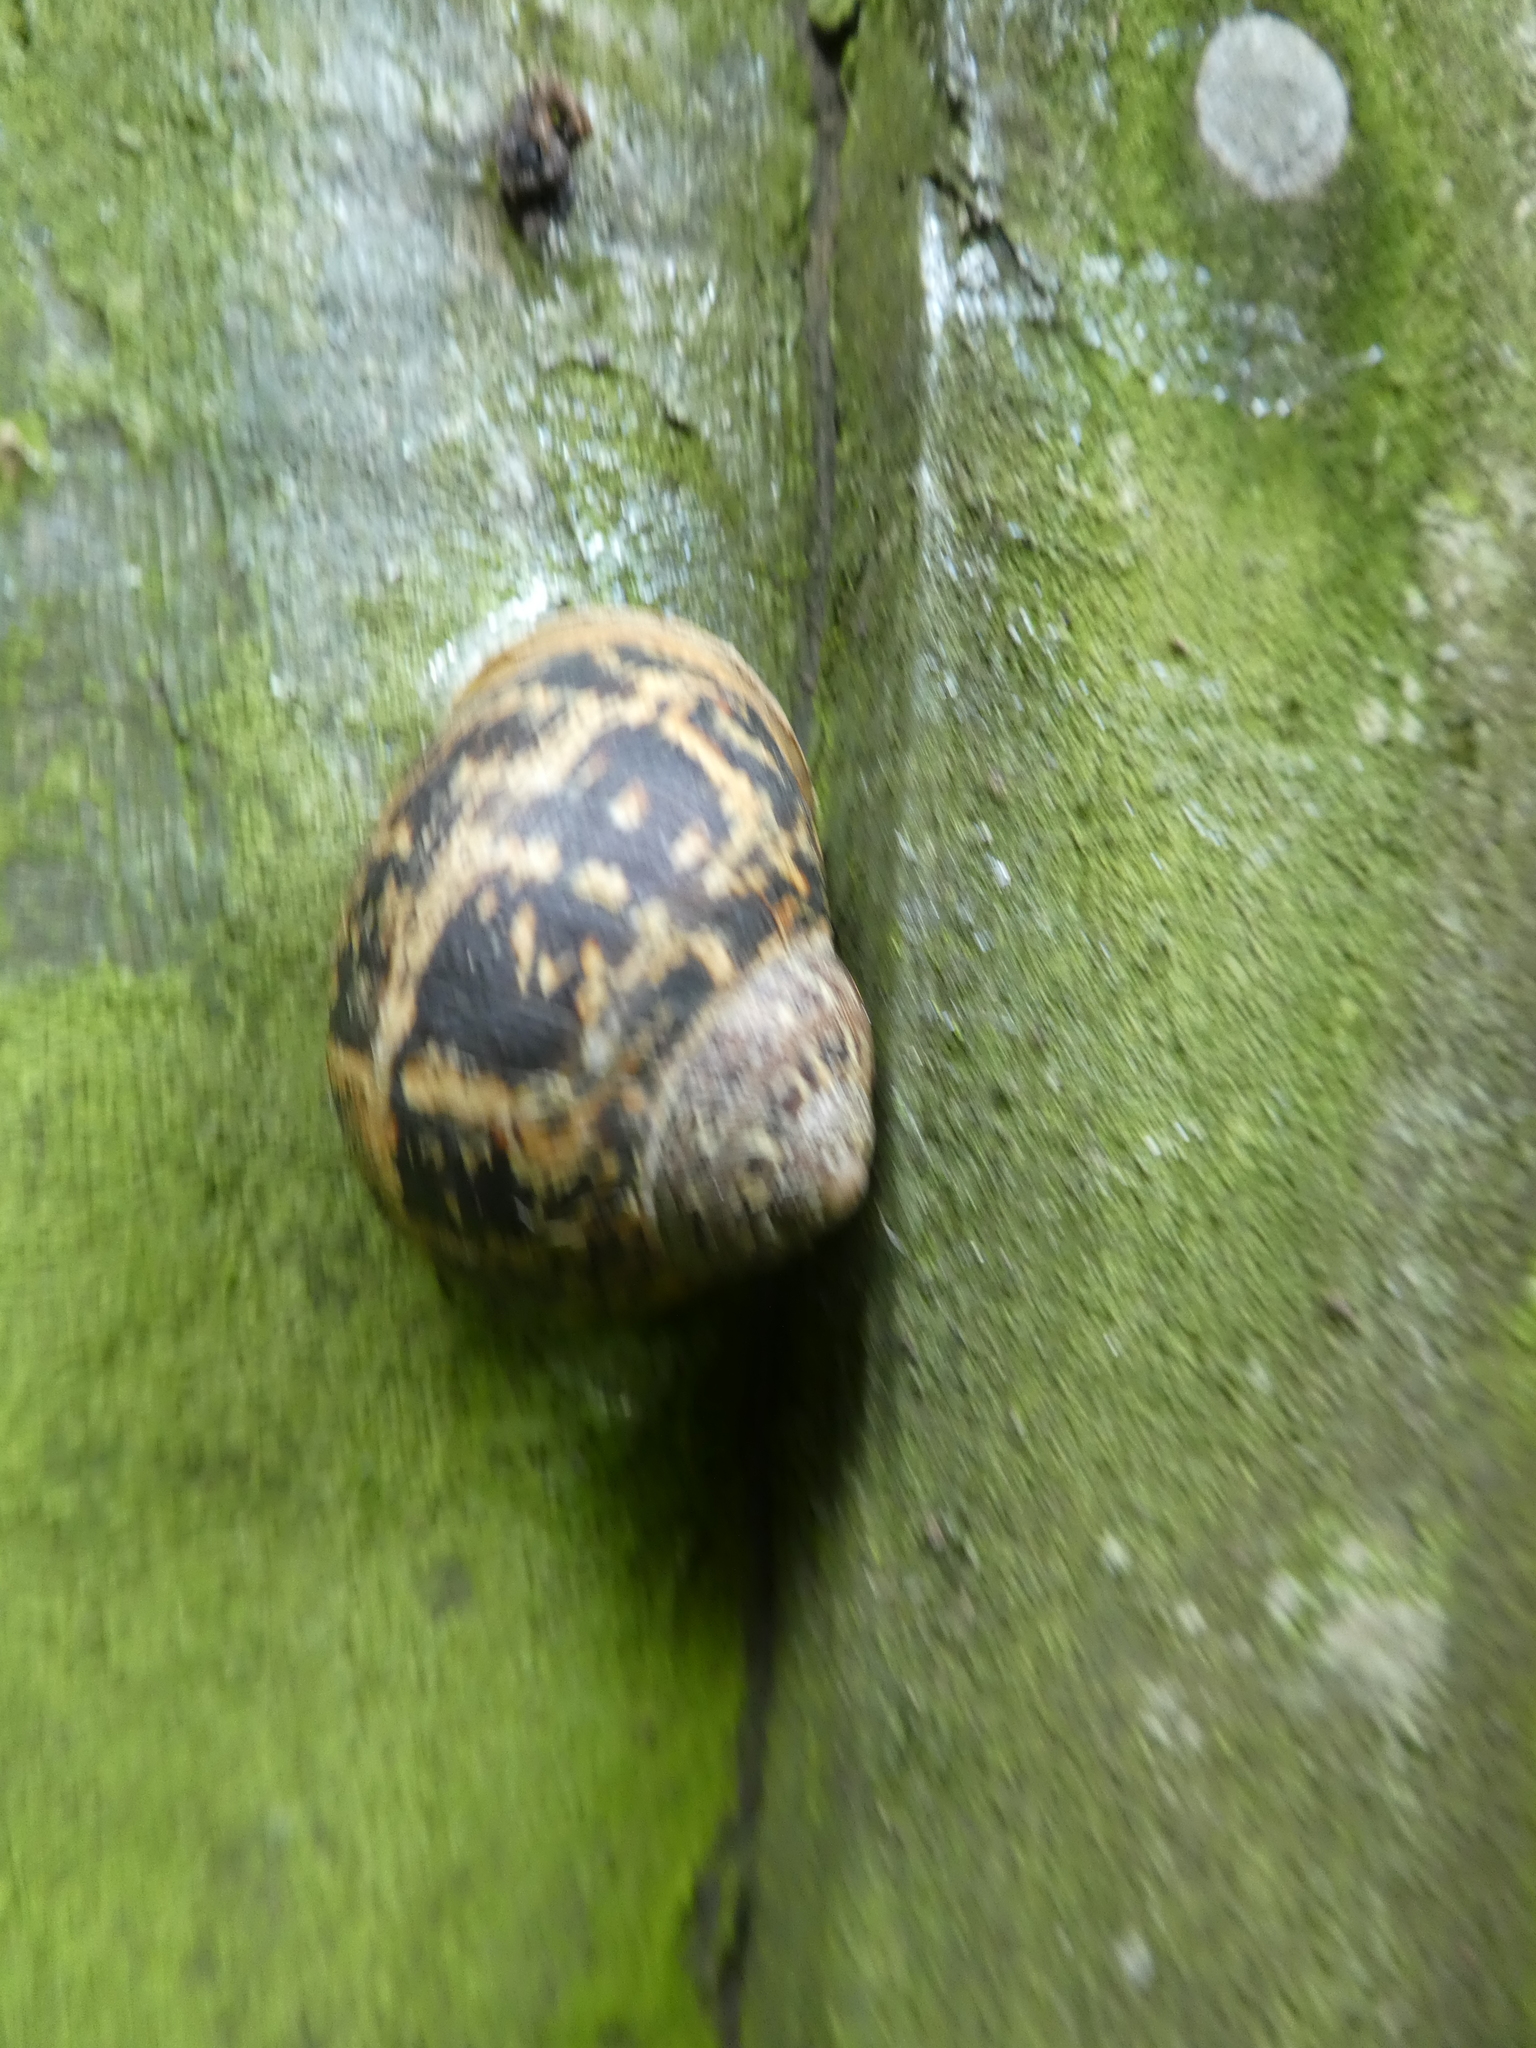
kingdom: Animalia
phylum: Mollusca
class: Gastropoda
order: Stylommatophora
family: Helicidae
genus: Cornu
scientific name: Cornu aspersum
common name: Brown garden snail
